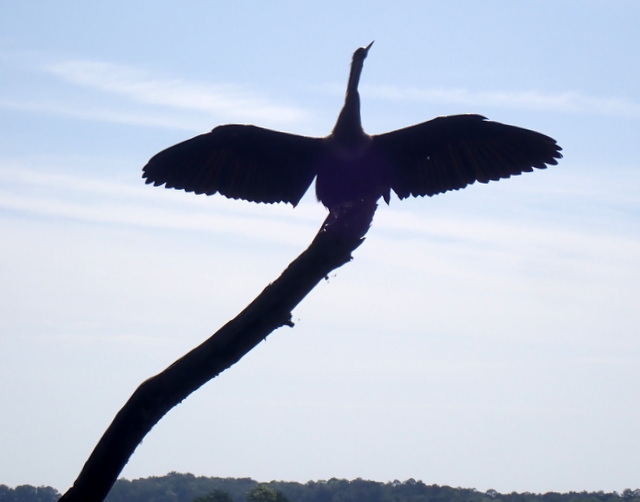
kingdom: Animalia
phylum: Chordata
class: Aves
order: Suliformes
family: Anhingidae
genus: Anhinga
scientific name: Anhinga anhinga
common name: Anhinga
